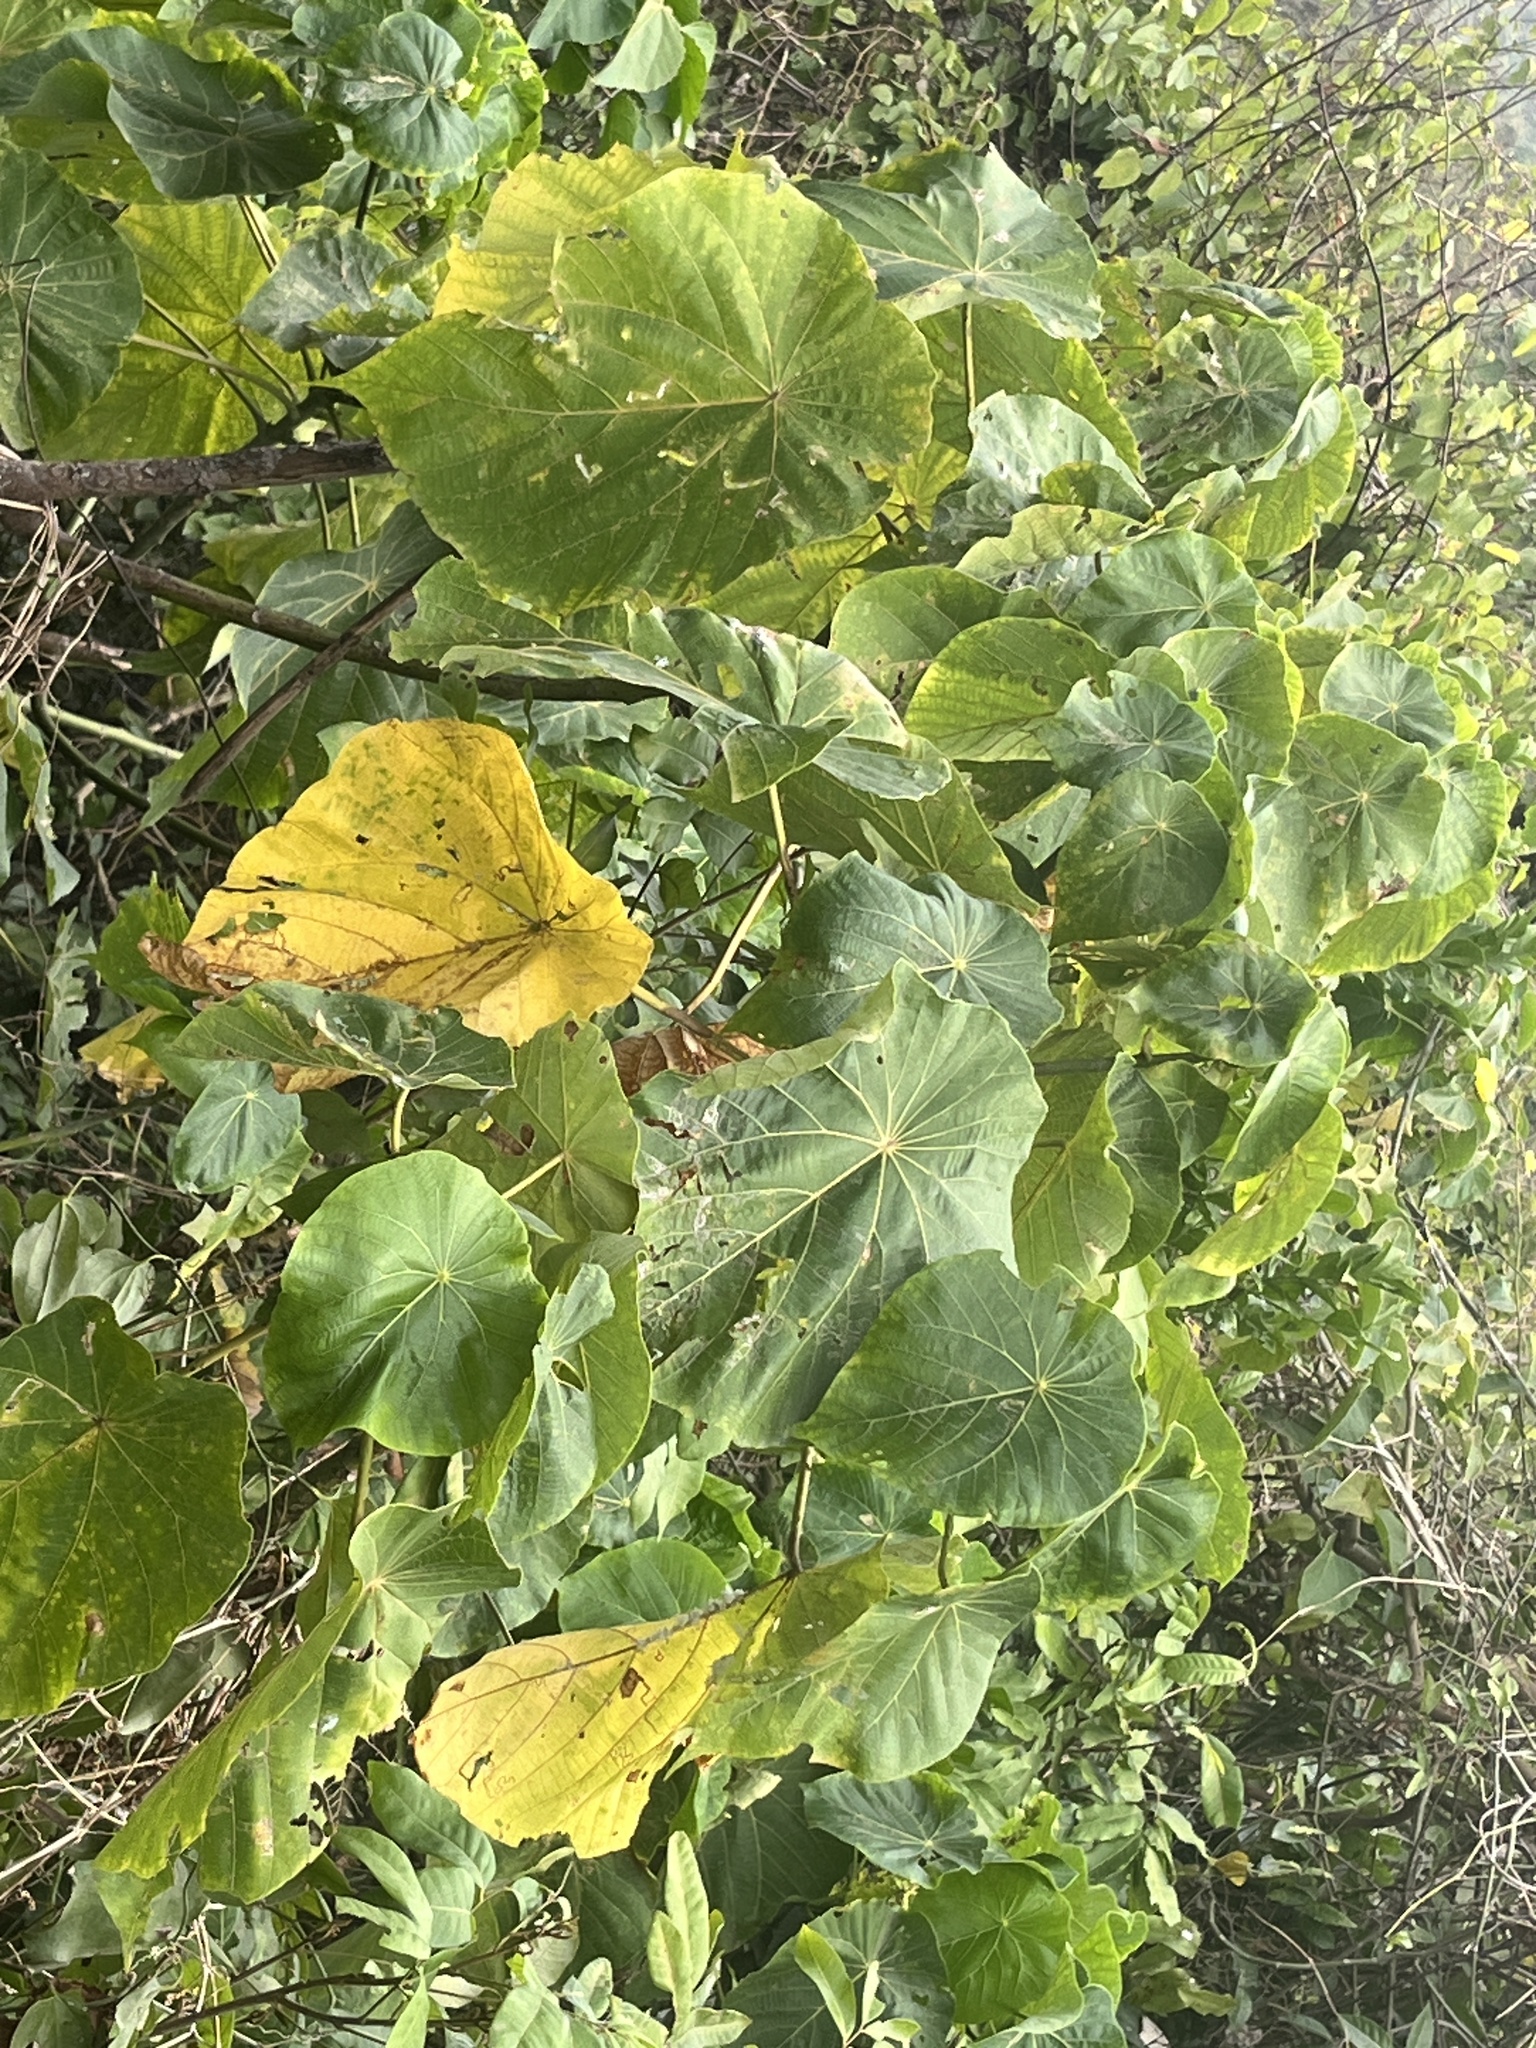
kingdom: Plantae
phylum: Tracheophyta
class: Magnoliopsida
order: Malpighiales
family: Euphorbiaceae
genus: Macaranga
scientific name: Macaranga tanarius
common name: Parasol leaf tree
